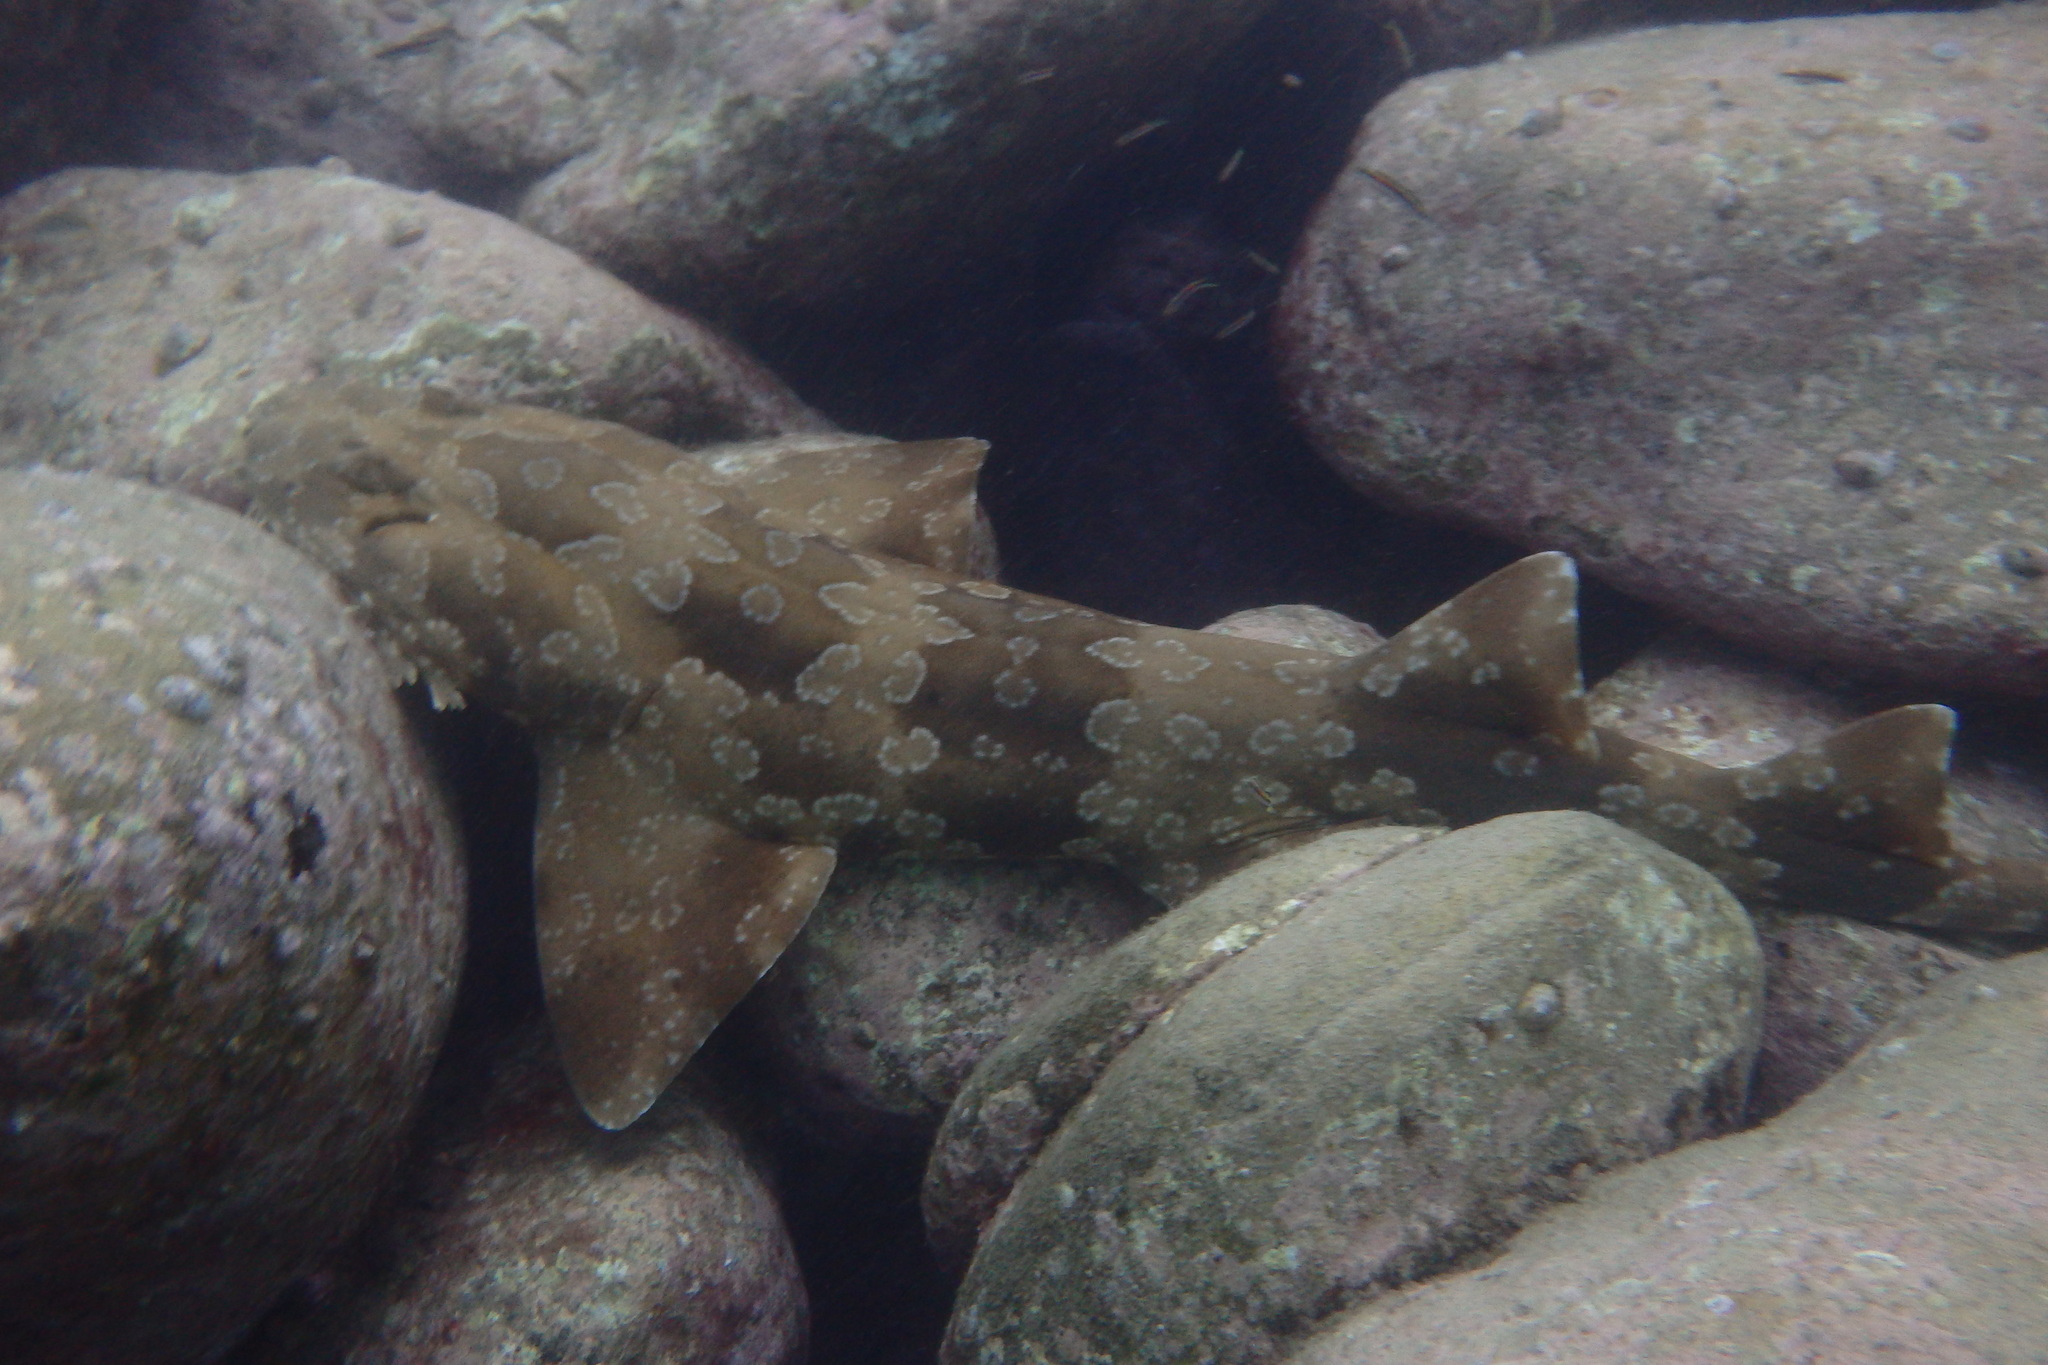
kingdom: Animalia
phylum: Chordata
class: Elasmobranchii
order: Orectolobiformes
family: Orectolobidae
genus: Orectolobus
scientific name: Orectolobus maculatus
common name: Spotted wobbegong
